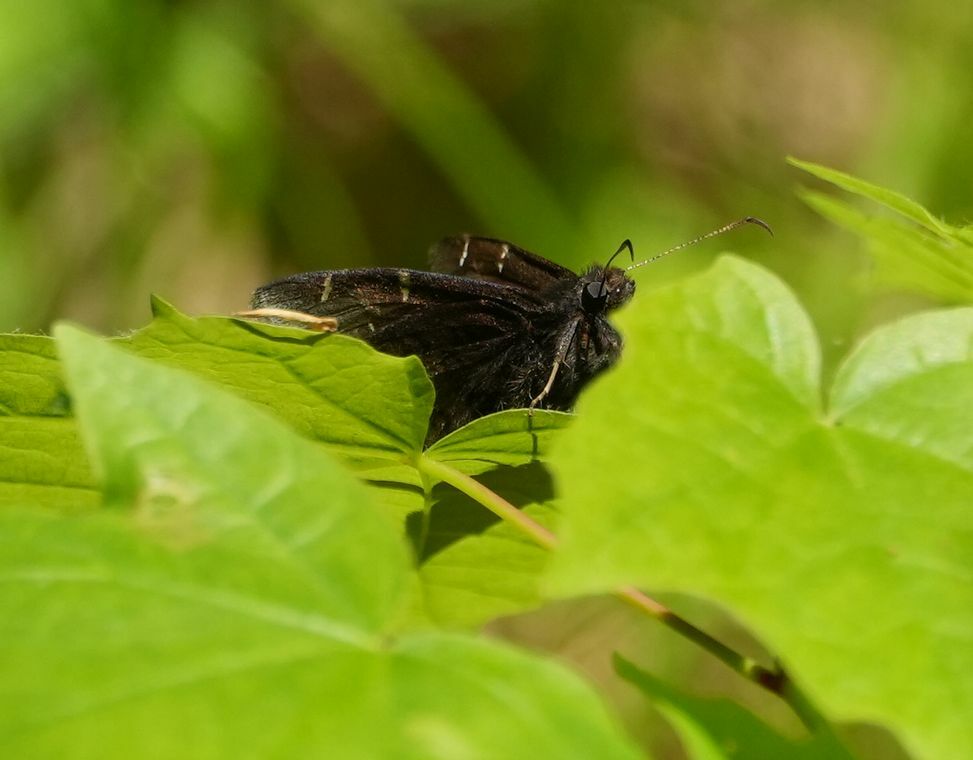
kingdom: Animalia
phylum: Arthropoda
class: Insecta
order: Lepidoptera
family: Hesperiidae
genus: Thorybes
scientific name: Thorybes pylades
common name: Northern cloudywing
